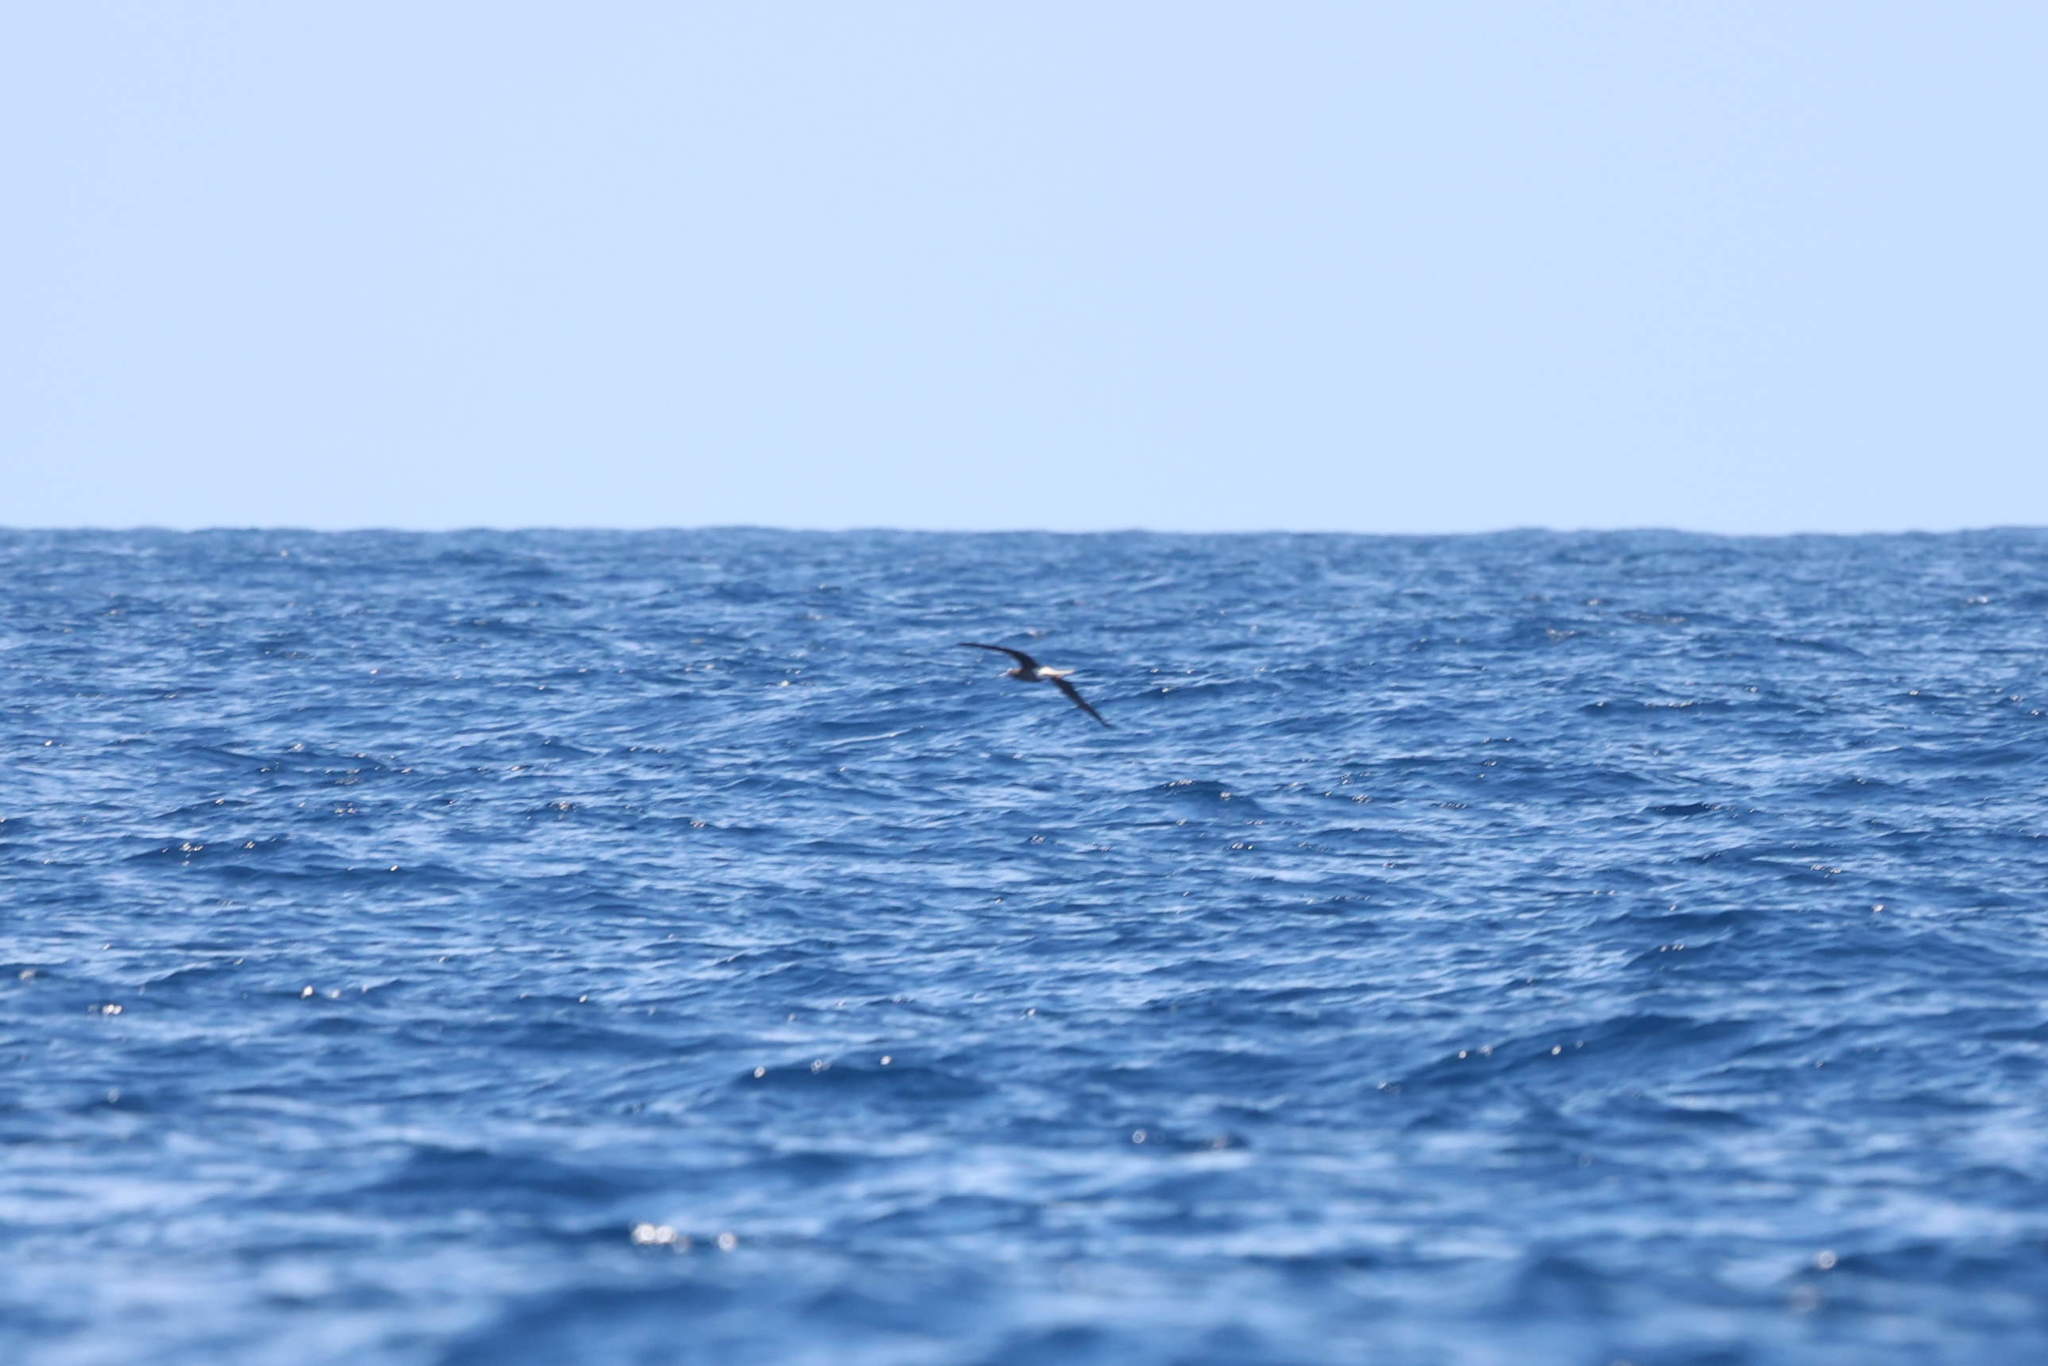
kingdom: Animalia
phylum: Chordata
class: Aves
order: Suliformes
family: Sulidae
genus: Sula
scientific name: Sula sula
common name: Red-footed booby
